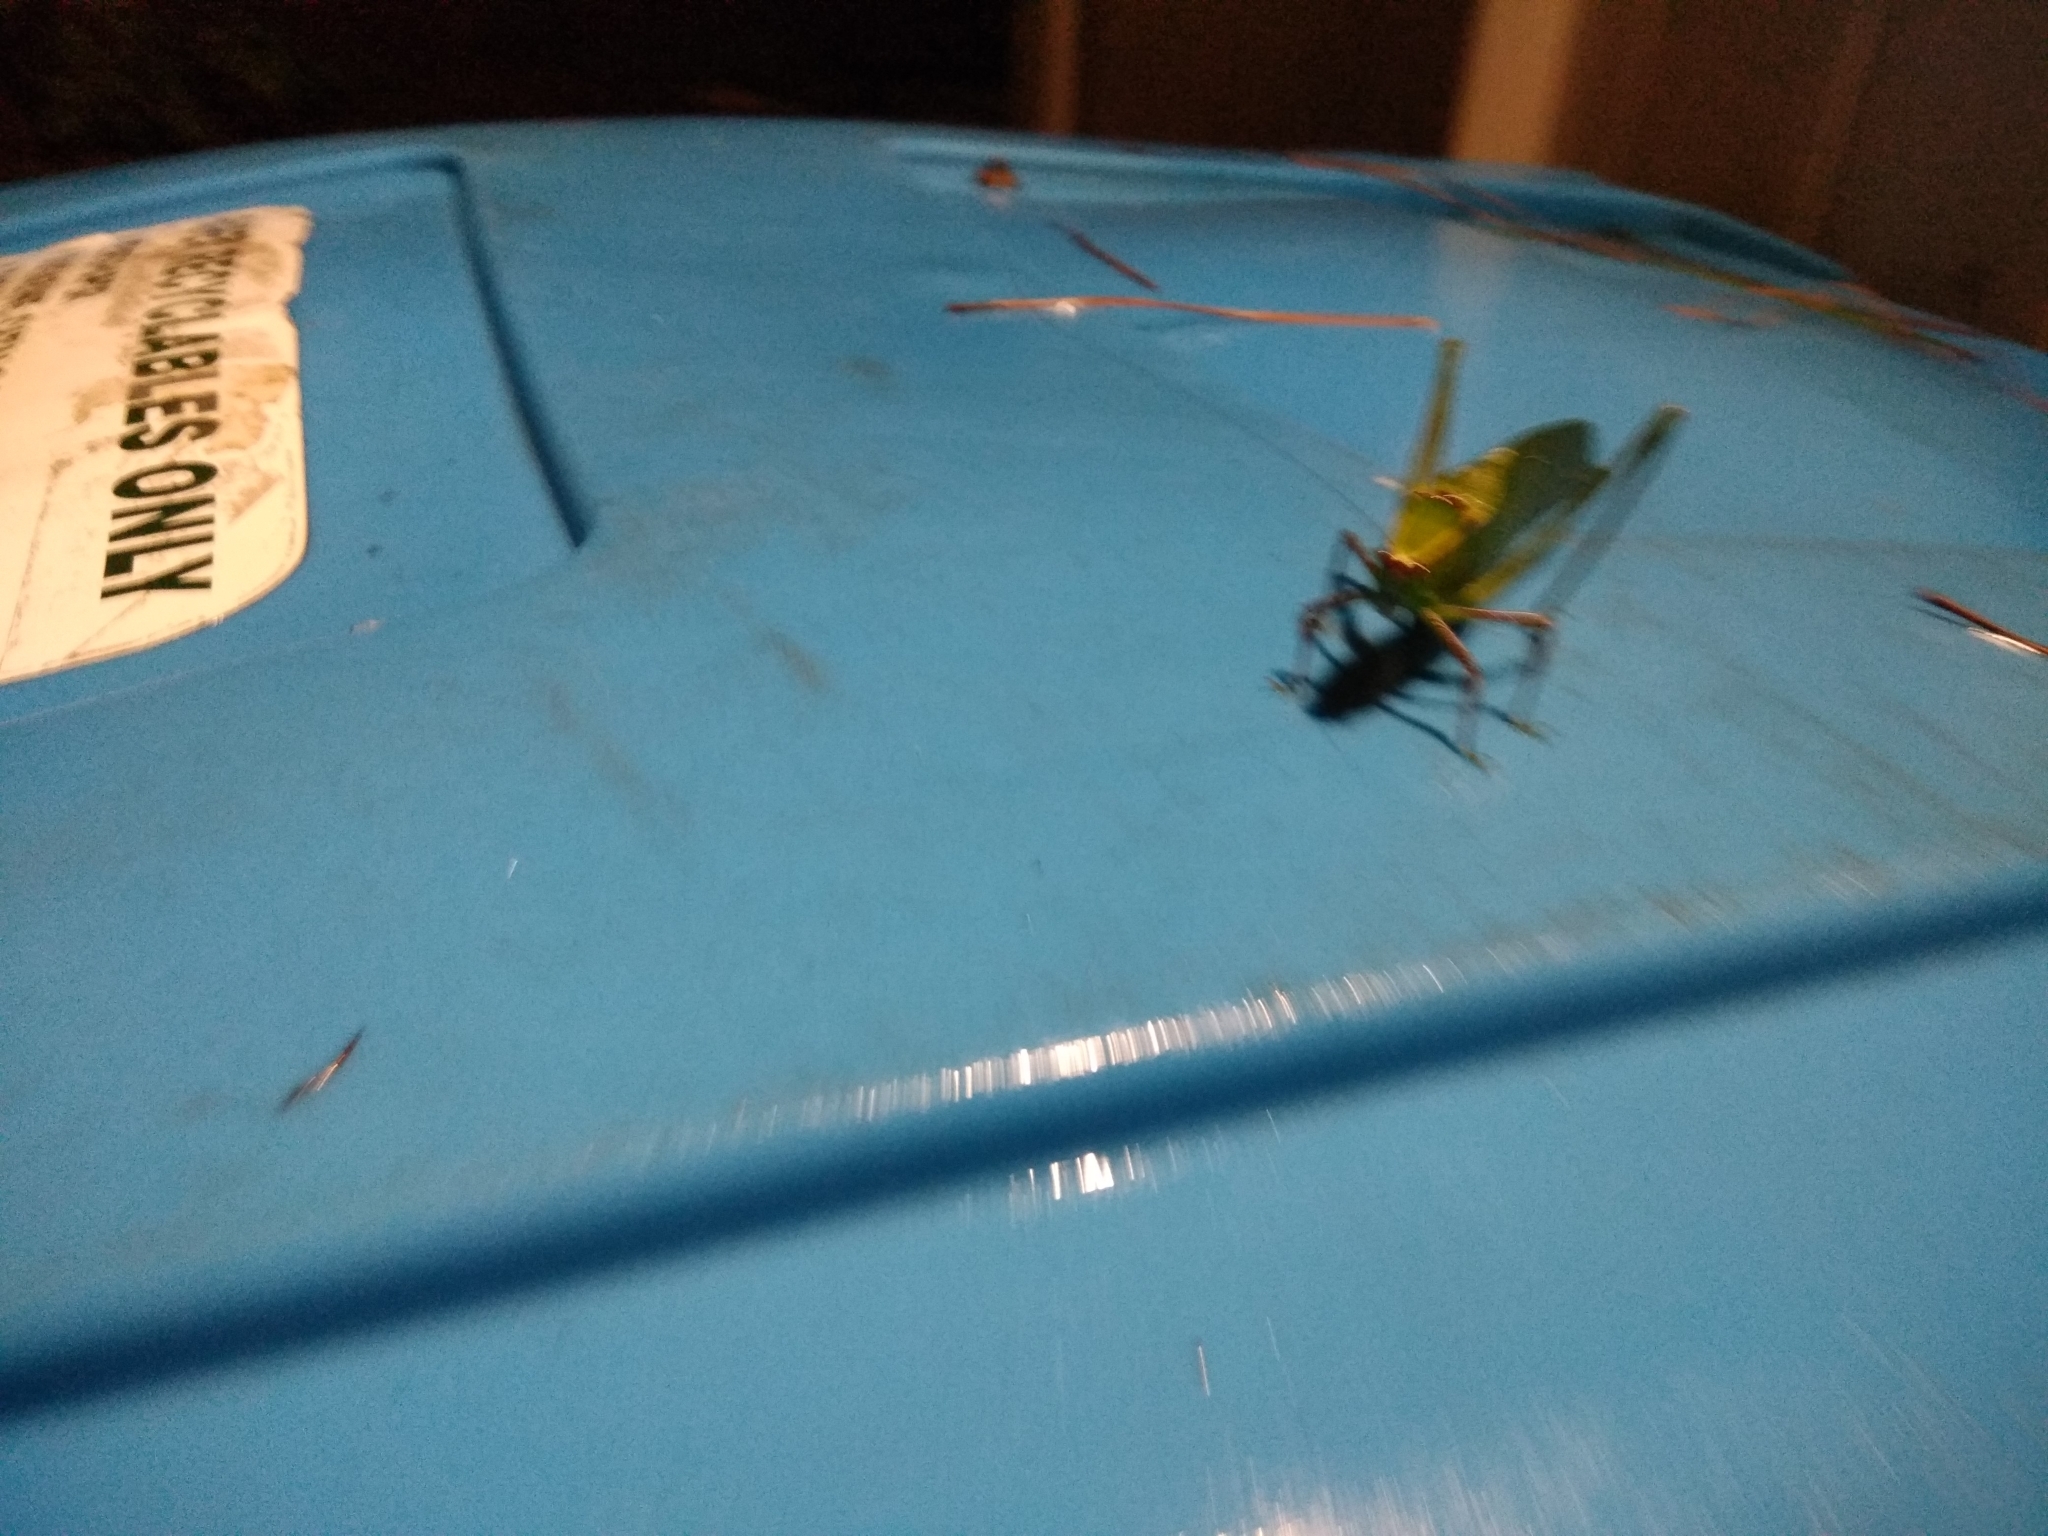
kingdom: Animalia
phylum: Arthropoda
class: Insecta
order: Orthoptera
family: Tettigoniidae
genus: Stilpnochlora
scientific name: Stilpnochlora couloniana
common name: Giant katydid
